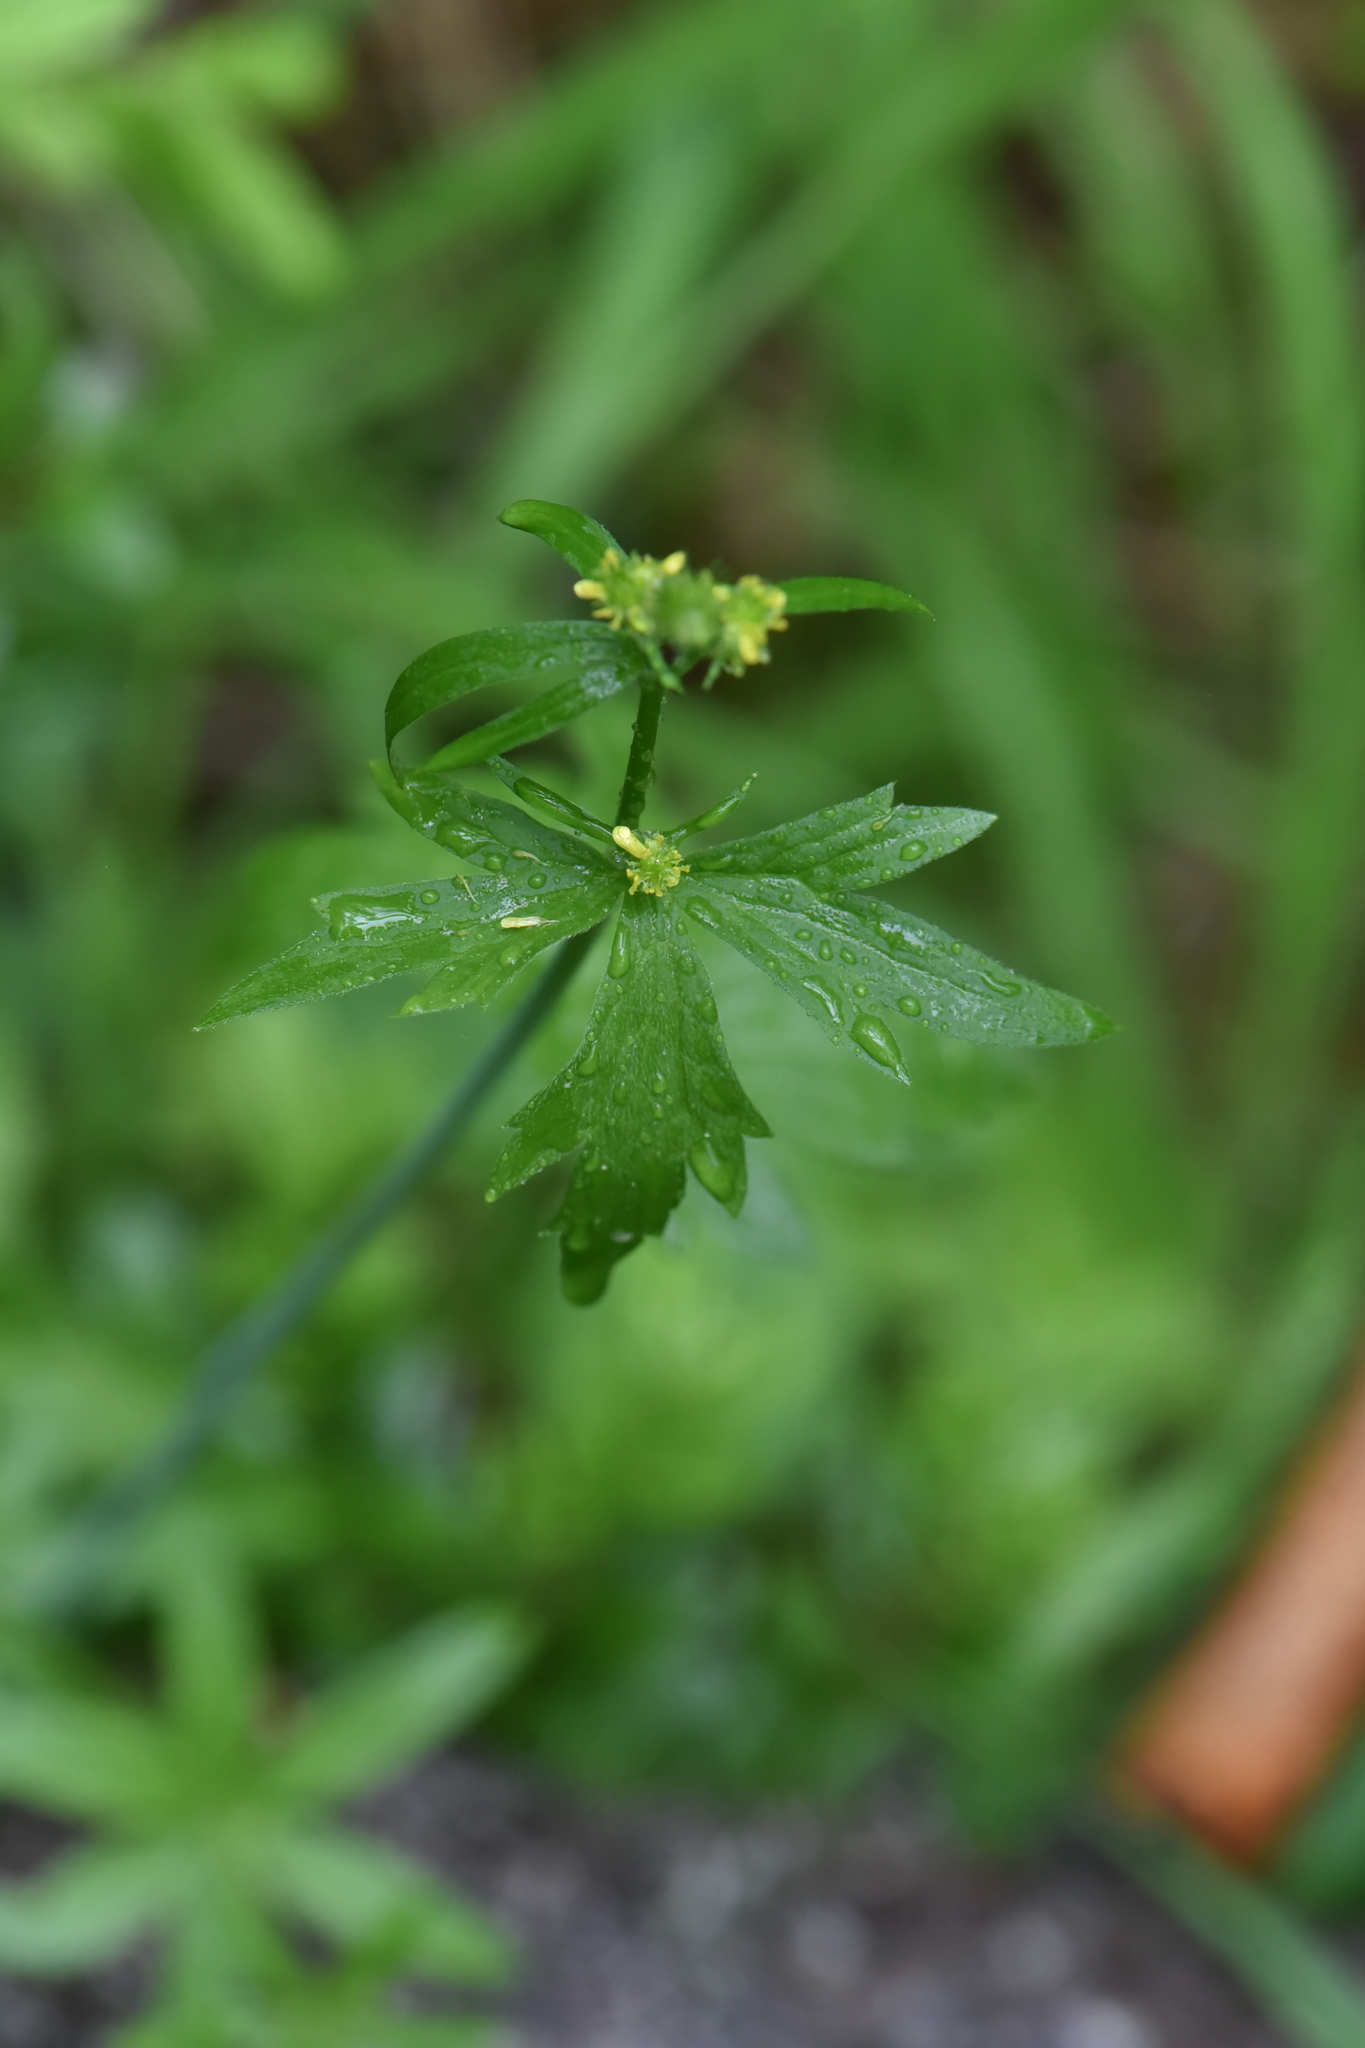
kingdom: Plantae
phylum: Tracheophyta
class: Magnoliopsida
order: Ranunculales
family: Ranunculaceae
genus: Ranunculus
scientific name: Ranunculus uncinatus
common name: Little buttercup
